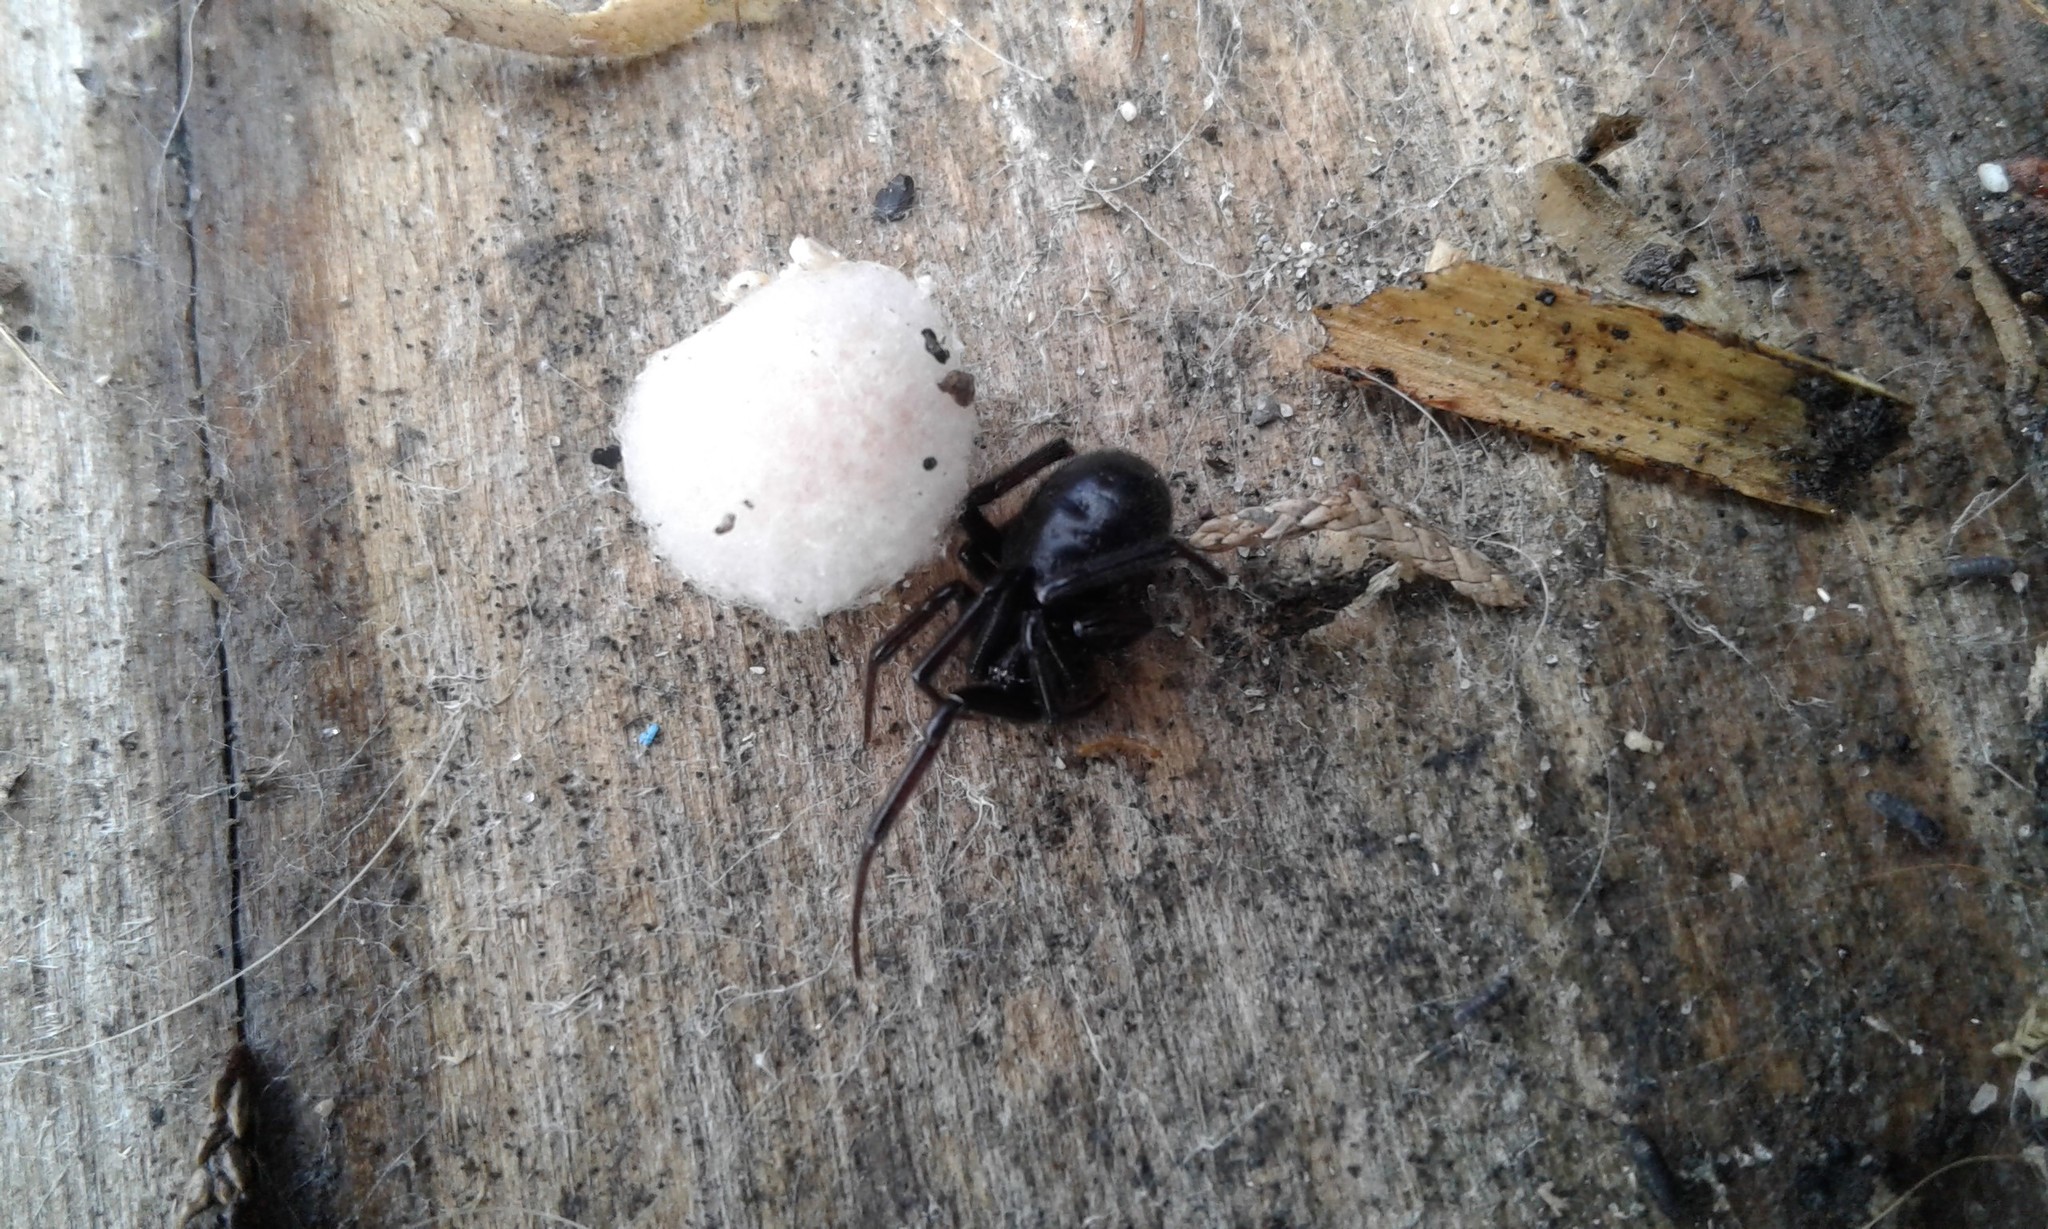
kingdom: Animalia
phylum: Arthropoda
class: Arachnida
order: Araneae
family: Theridiidae
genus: Steatoda
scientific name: Steatoda capensis
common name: Cobweb weaver
